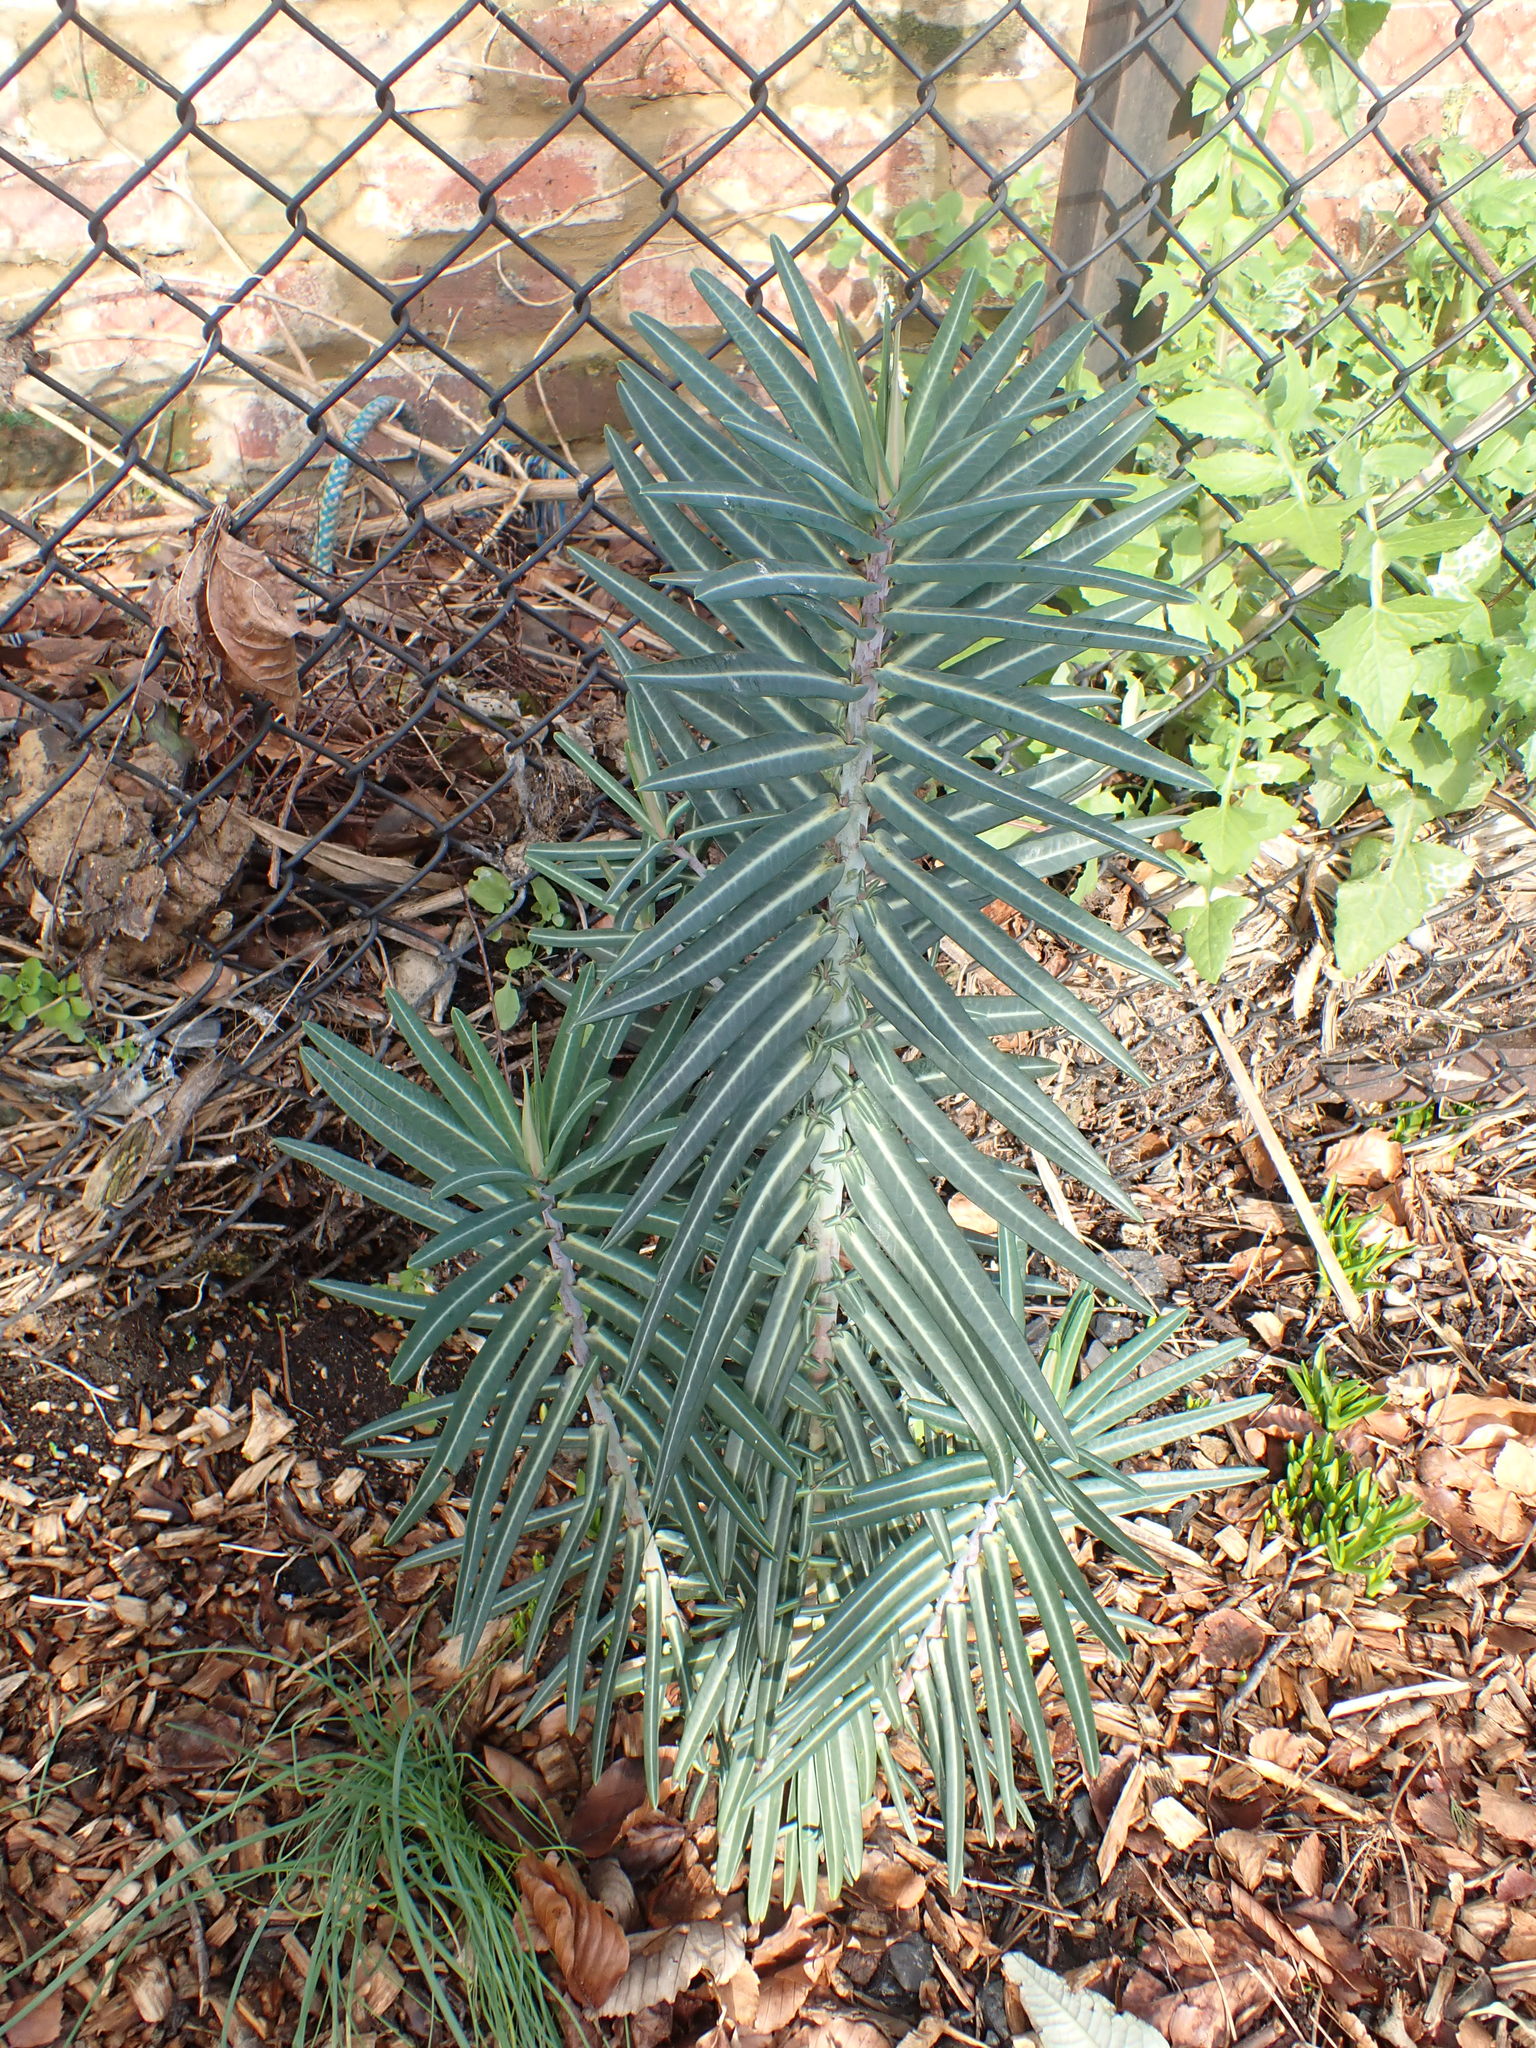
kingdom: Plantae
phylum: Tracheophyta
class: Magnoliopsida
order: Malpighiales
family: Euphorbiaceae
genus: Euphorbia
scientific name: Euphorbia lathyris
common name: Caper spurge
